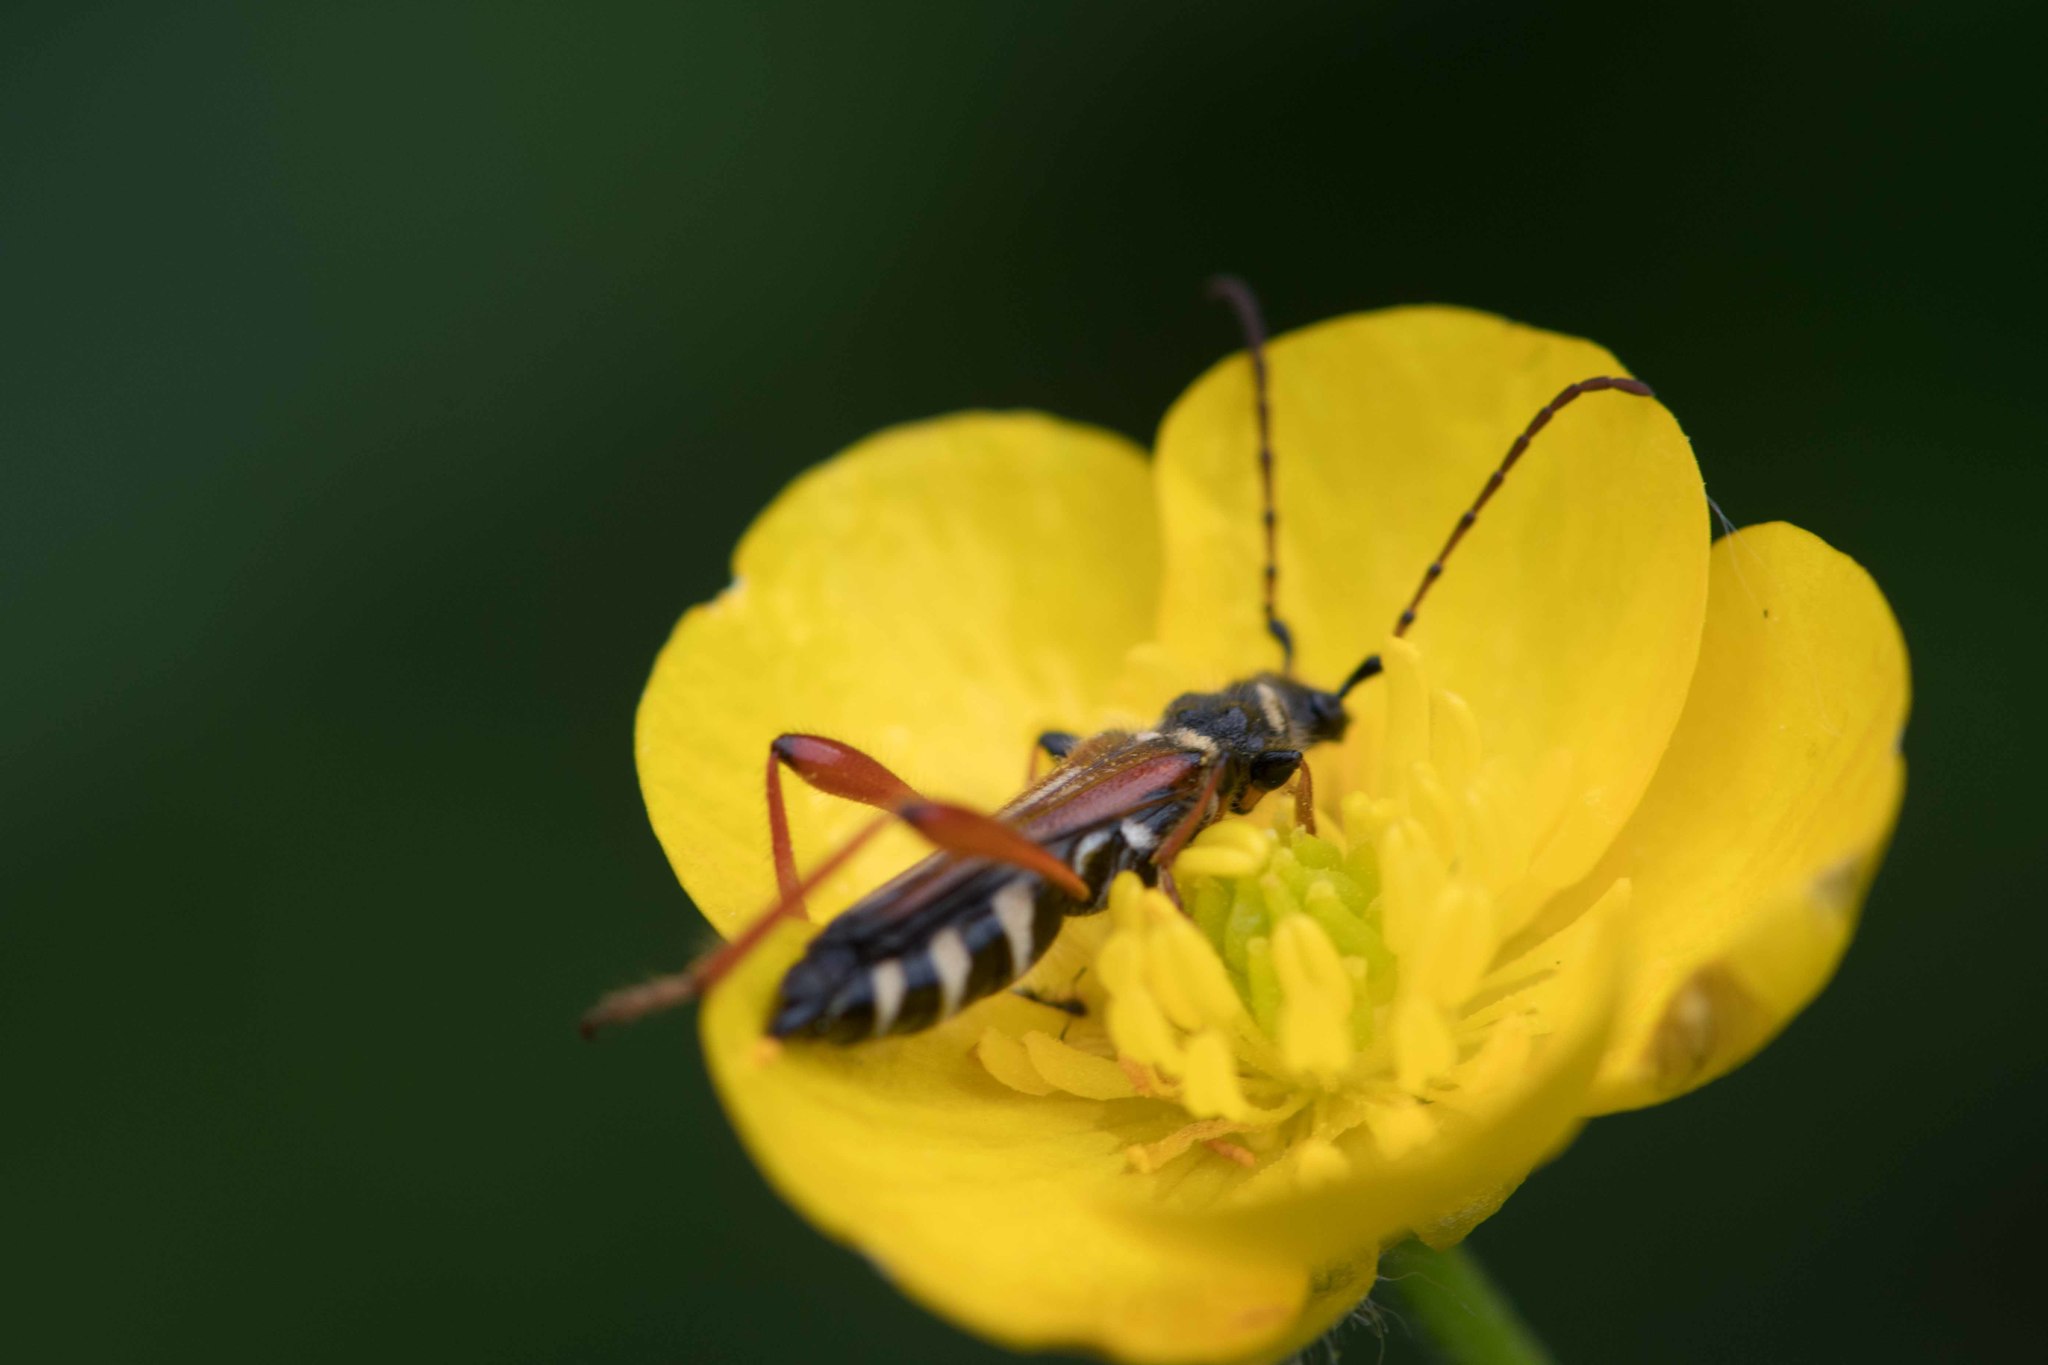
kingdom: Animalia
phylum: Arthropoda
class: Insecta
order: Coleoptera
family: Cerambycidae
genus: Stenopterus
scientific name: Stenopterus rufus
